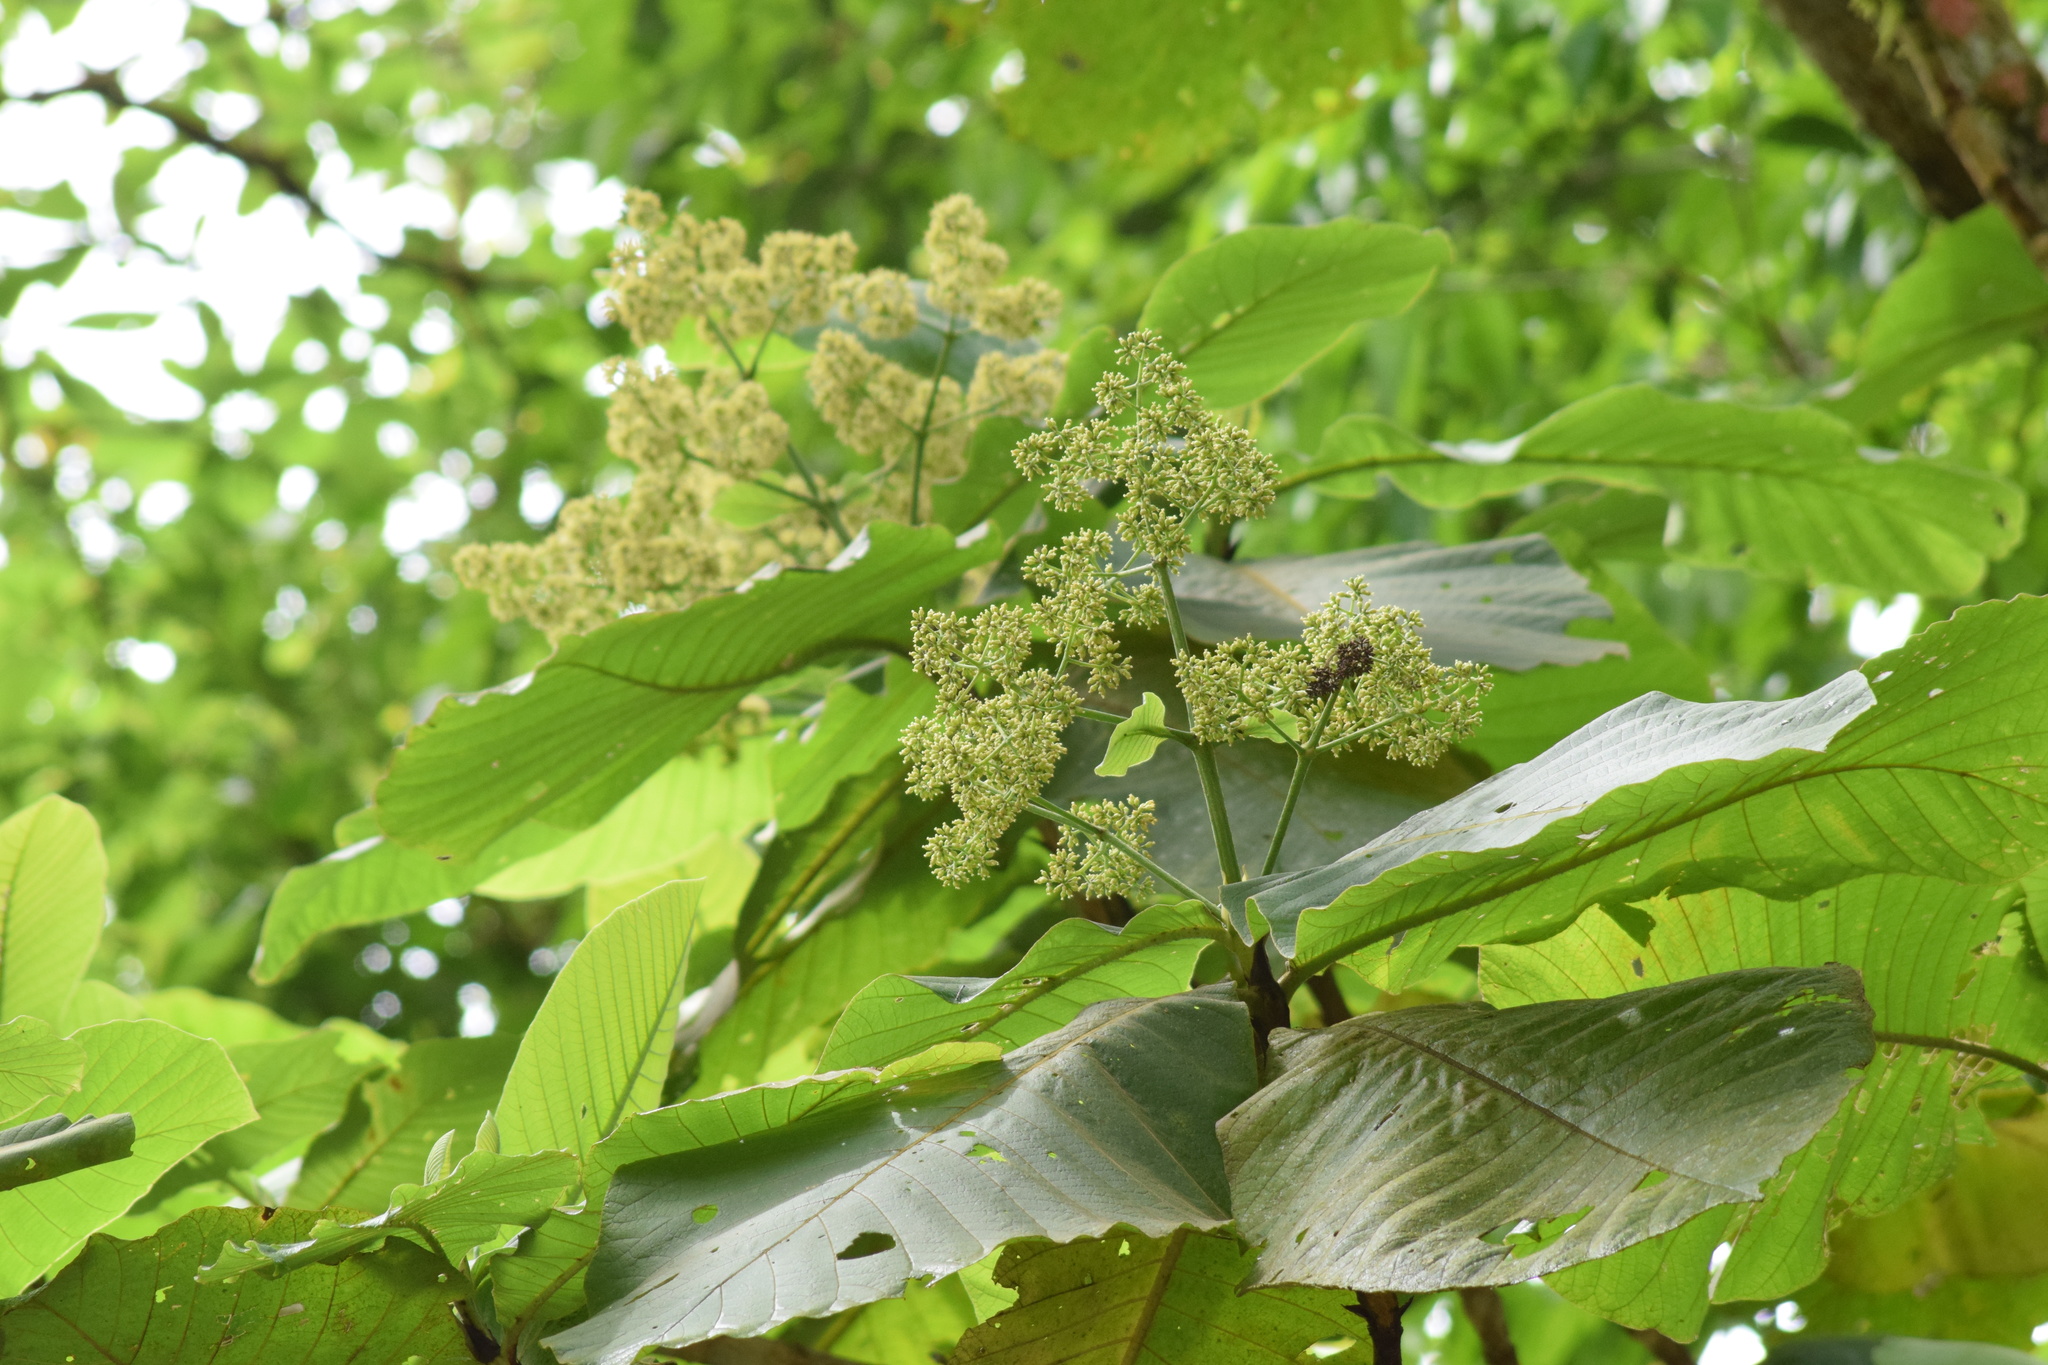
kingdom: Plantae
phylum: Tracheophyta
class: Magnoliopsida
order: Gentianales
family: Rubiaceae
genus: Bathysa
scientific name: Bathysa australis
